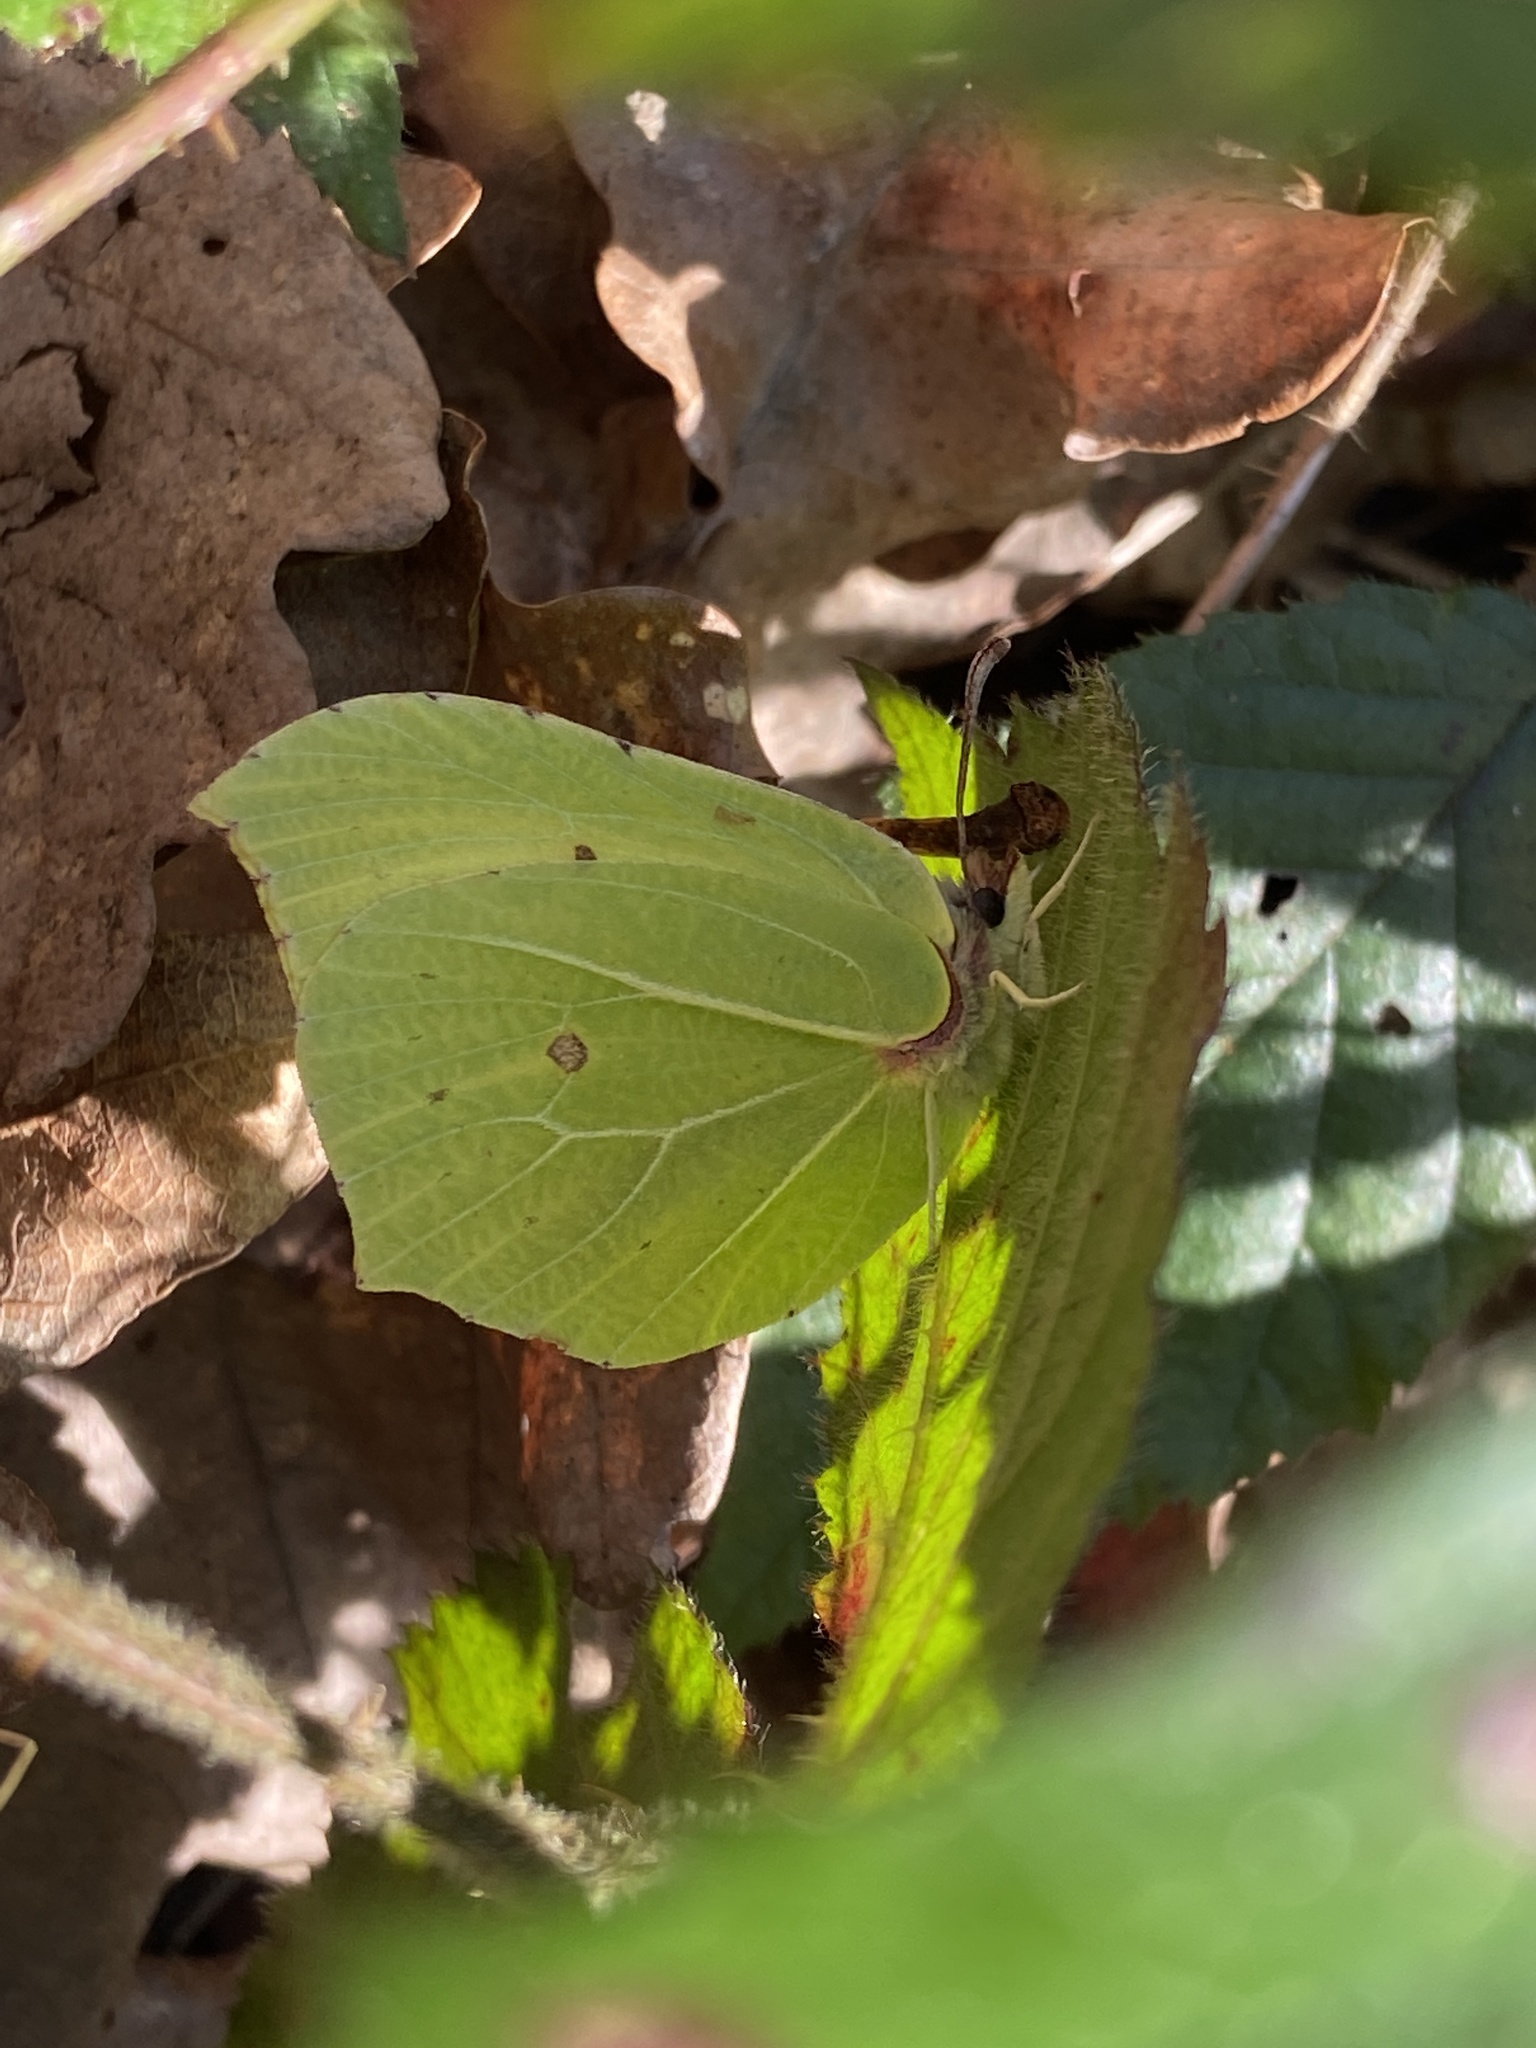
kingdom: Animalia
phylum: Arthropoda
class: Insecta
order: Lepidoptera
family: Pieridae
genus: Gonepteryx
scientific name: Gonepteryx rhamni
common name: Brimstone
